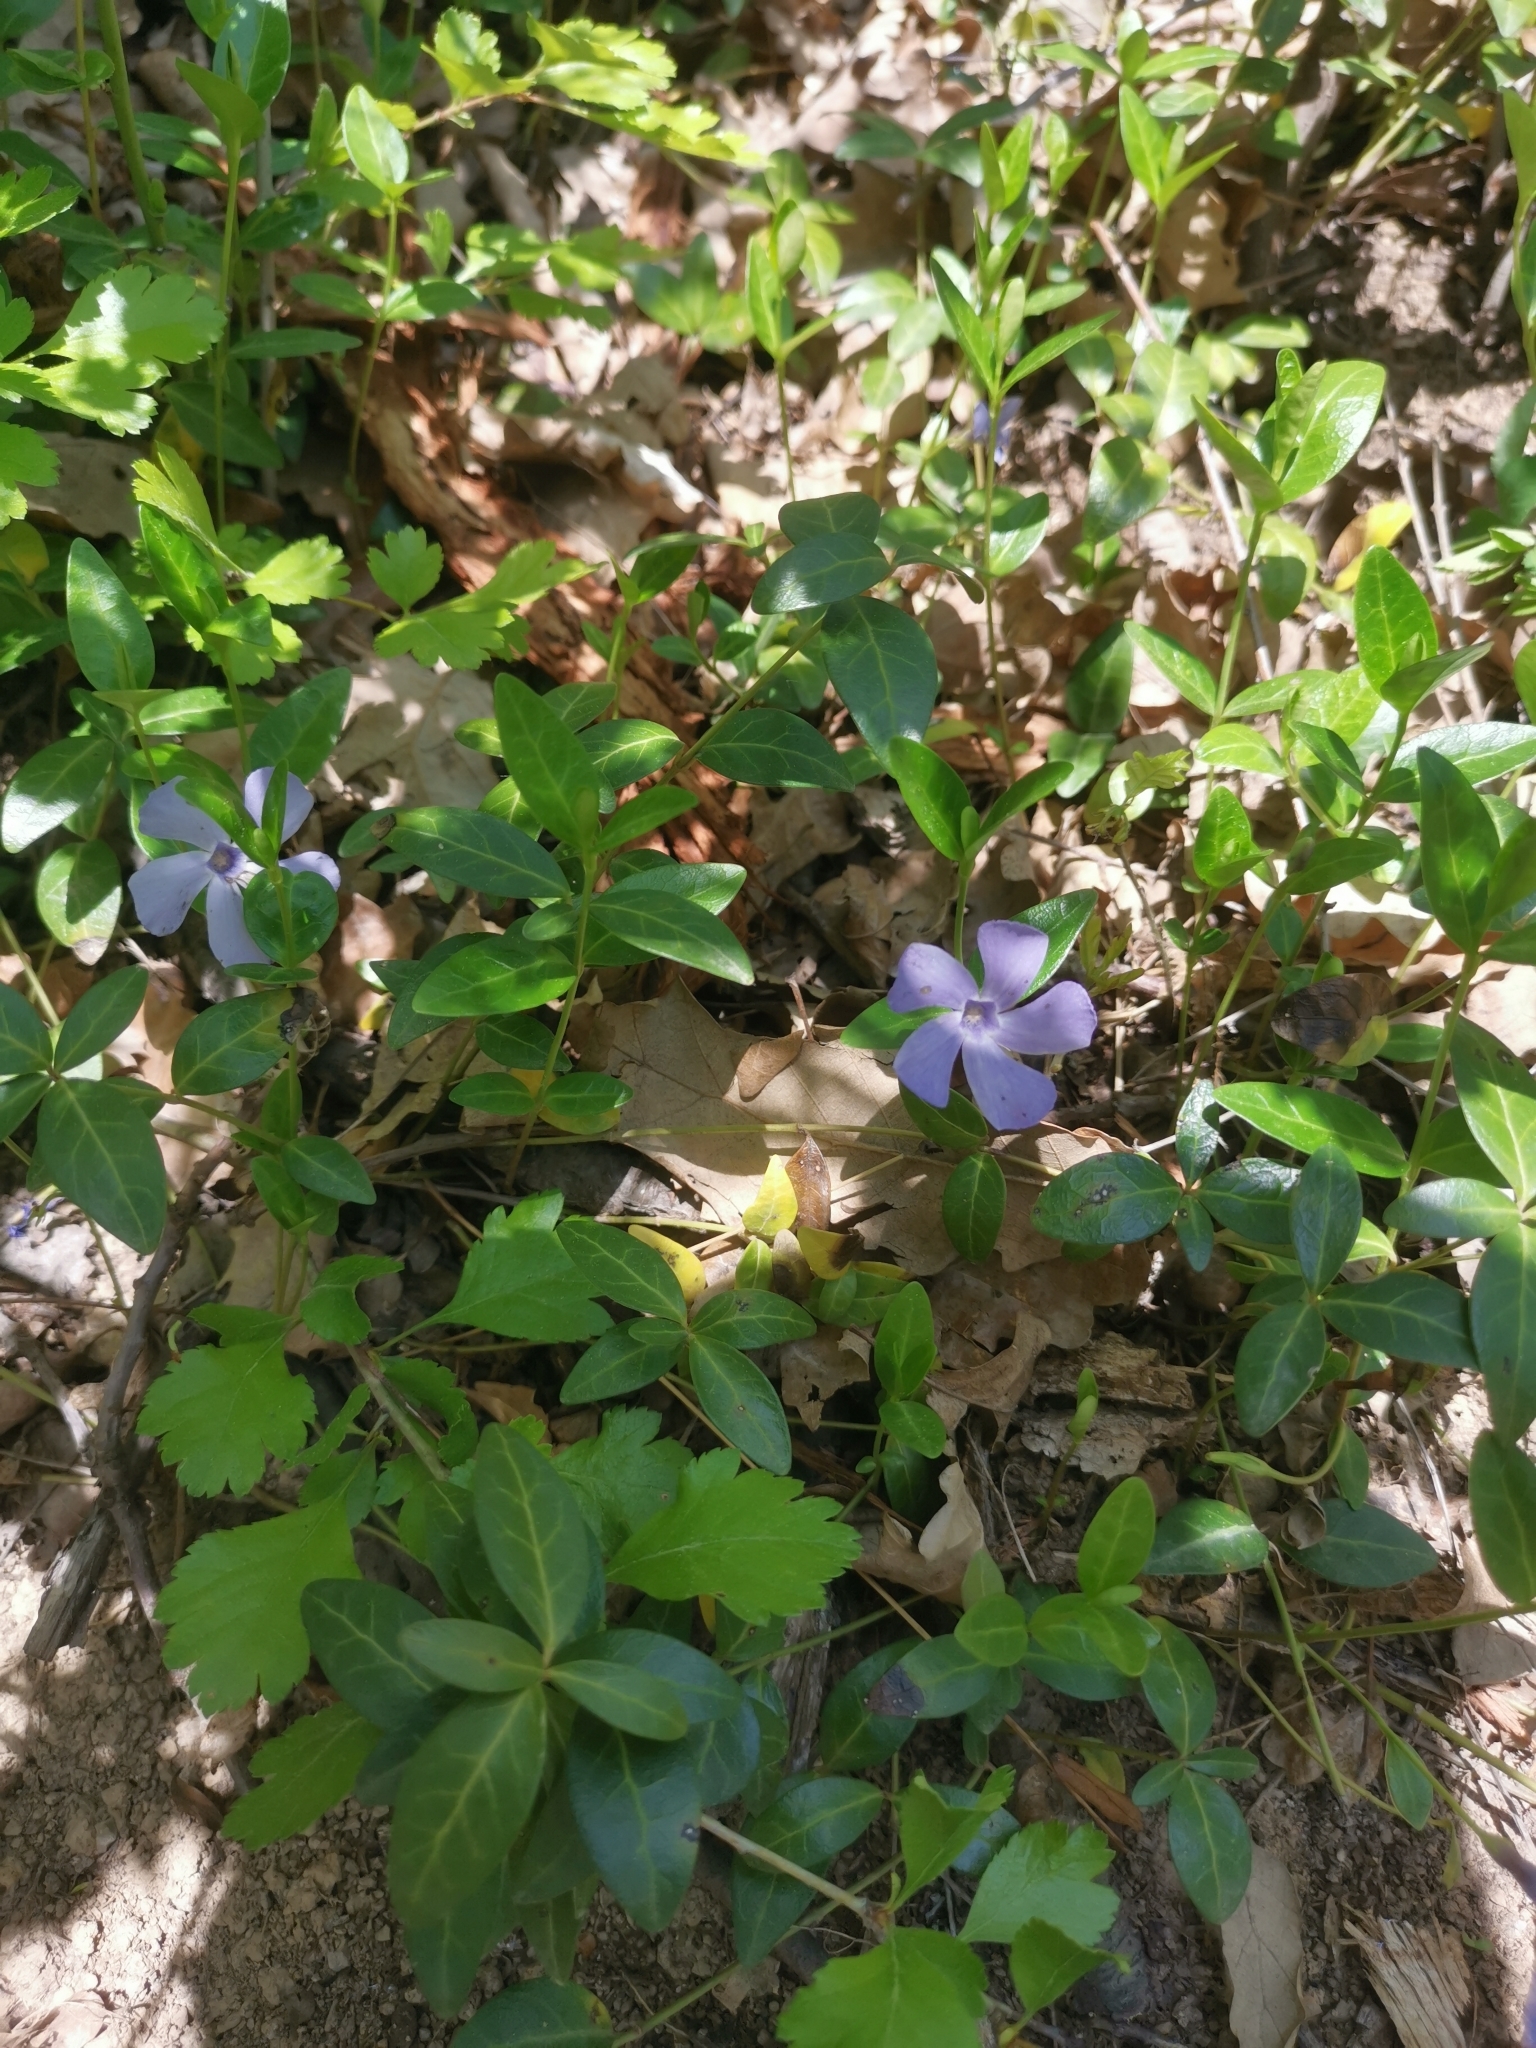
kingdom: Plantae
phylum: Tracheophyta
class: Magnoliopsida
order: Gentianales
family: Apocynaceae
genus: Vinca
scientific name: Vinca minor
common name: Lesser periwinkle
